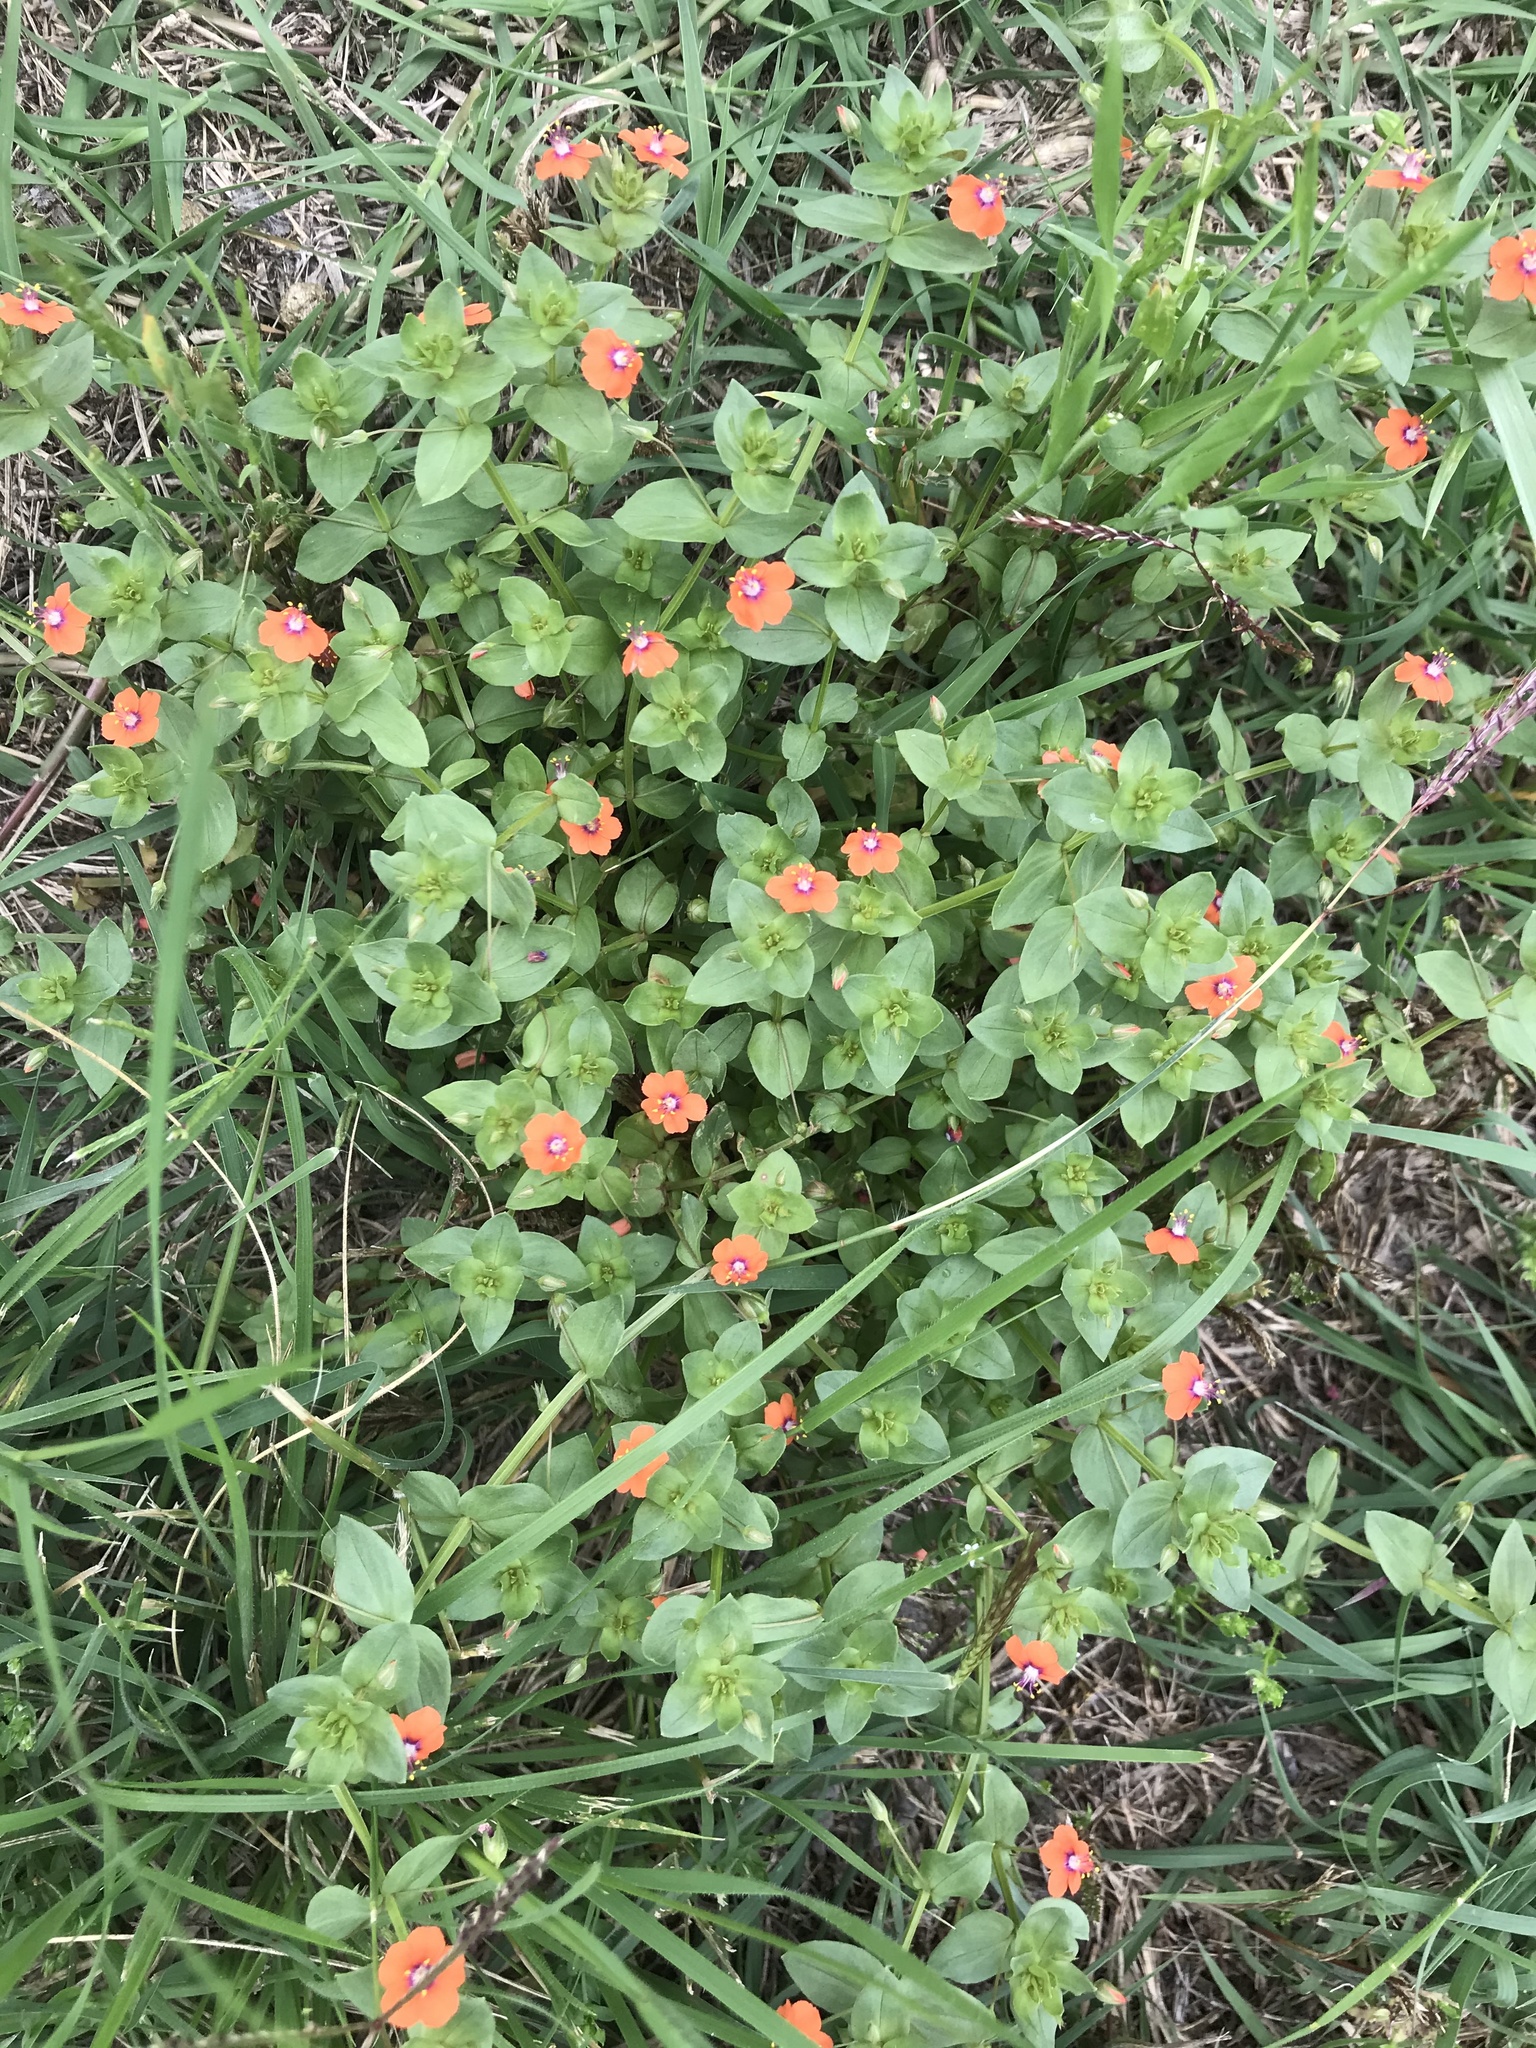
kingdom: Plantae
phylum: Tracheophyta
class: Magnoliopsida
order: Ericales
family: Primulaceae
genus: Lysimachia
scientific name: Lysimachia arvensis
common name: Scarlet pimpernel
